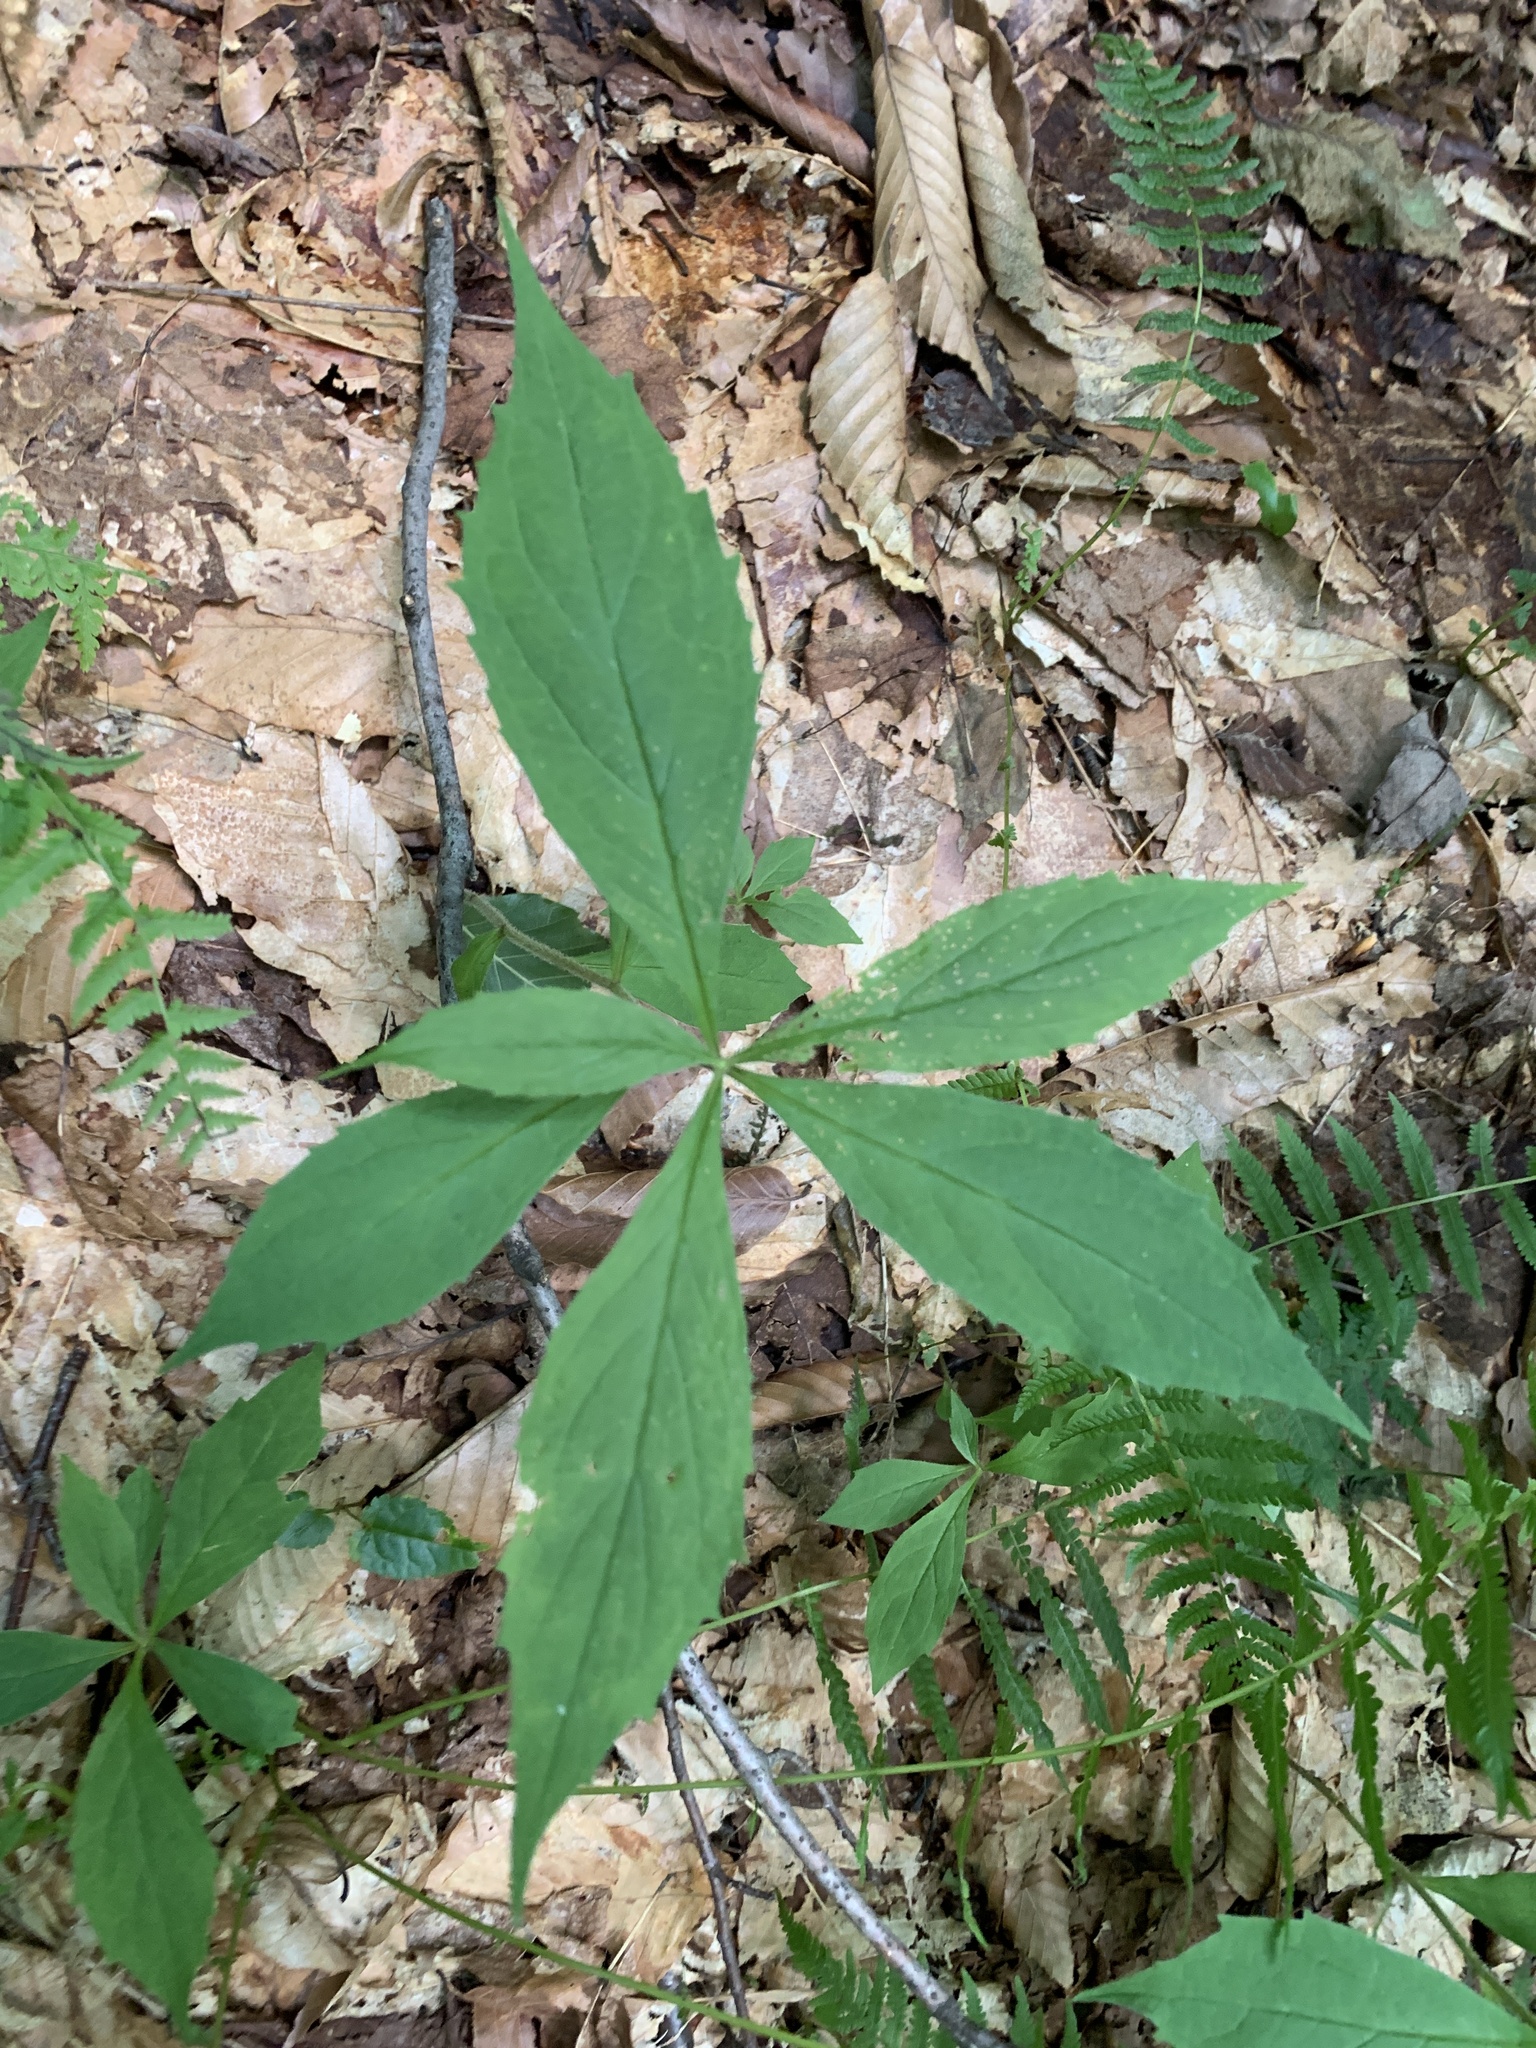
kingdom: Plantae
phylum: Tracheophyta
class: Magnoliopsida
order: Asterales
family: Asteraceae
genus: Oclemena
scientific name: Oclemena acuminata
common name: Mountain aster
